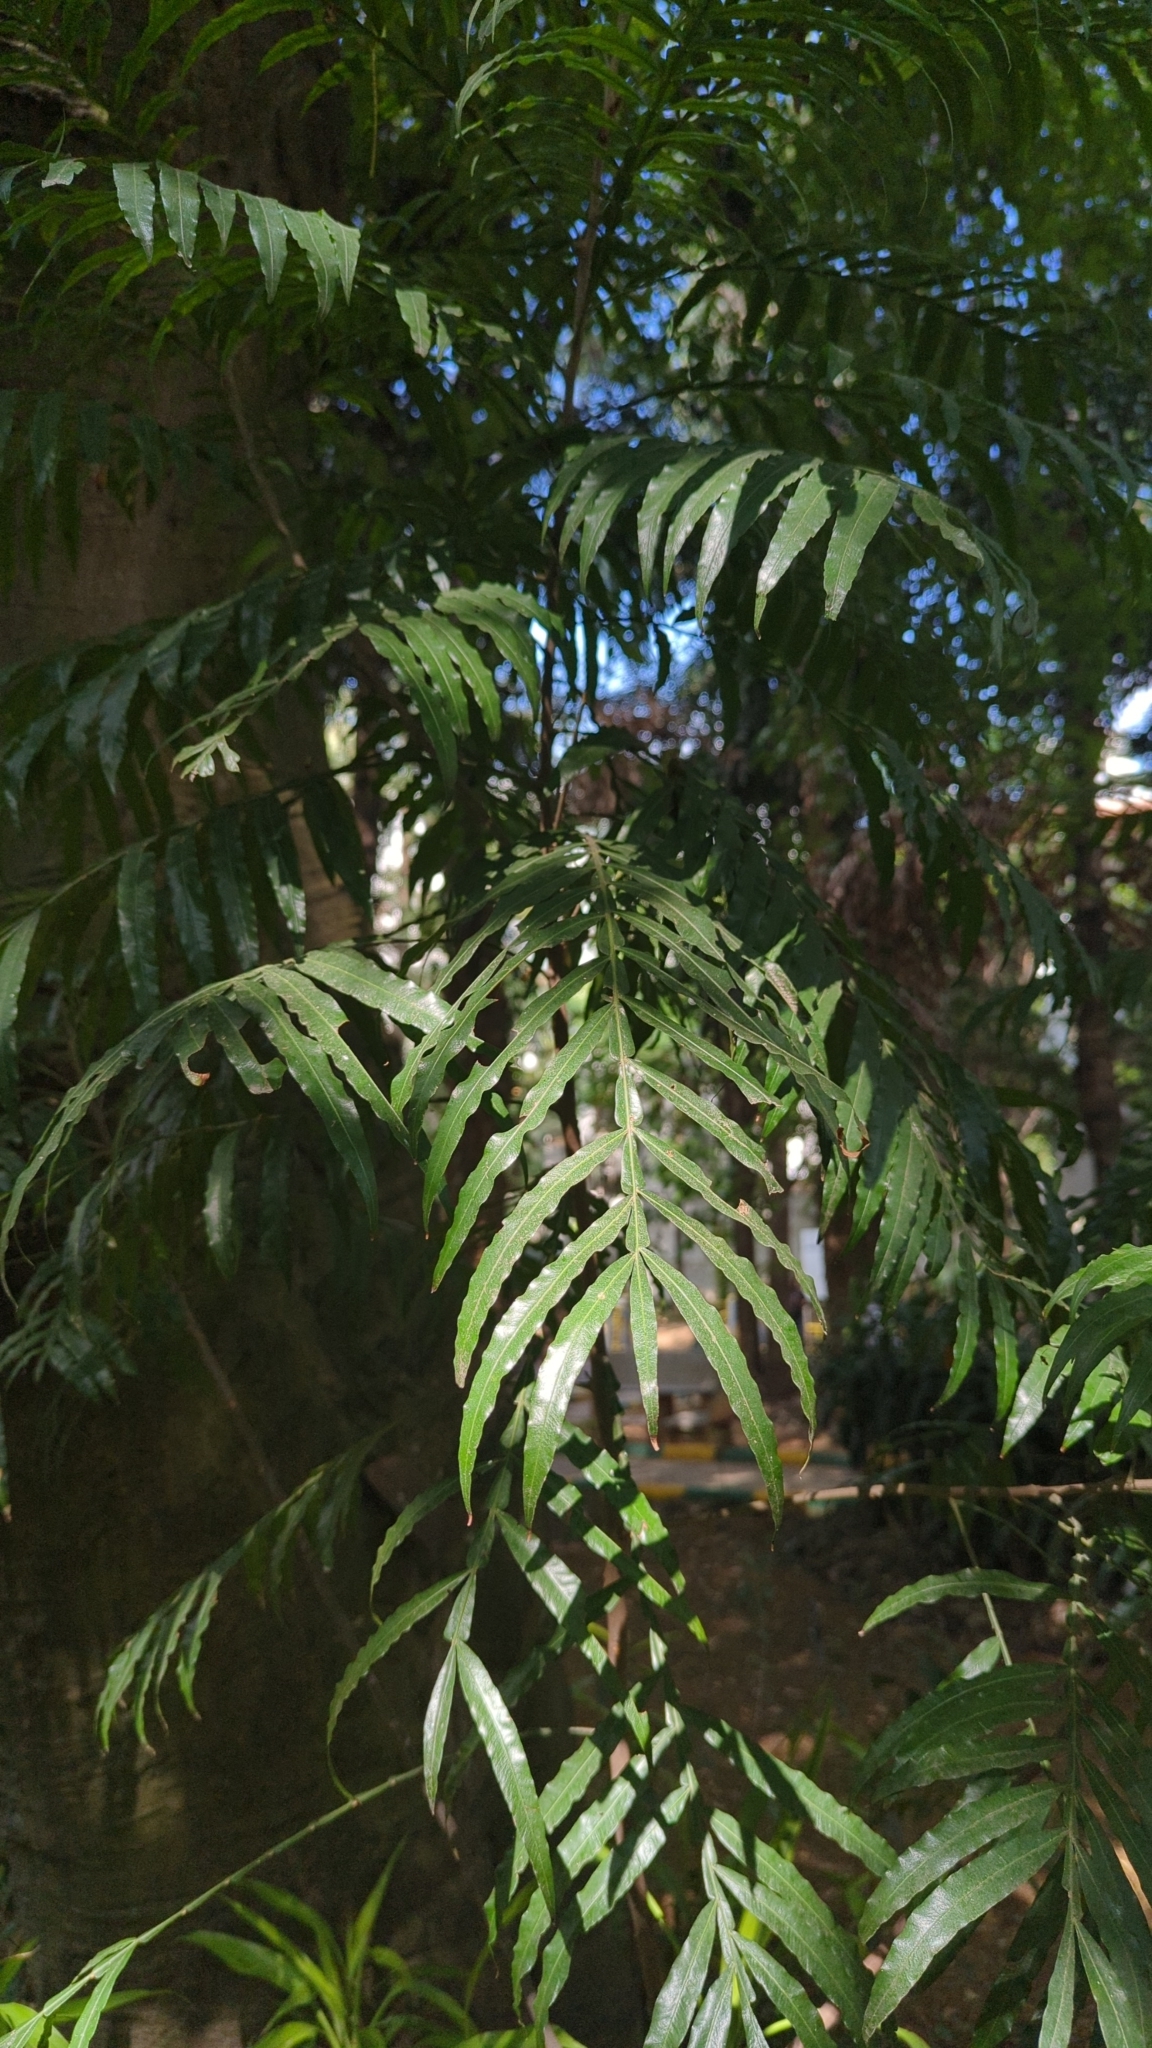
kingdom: Plantae
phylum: Tracheophyta
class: Magnoliopsida
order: Sapindales
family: Sapindaceae
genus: Filicium
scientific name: Filicium decipiens
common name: Ferntree
